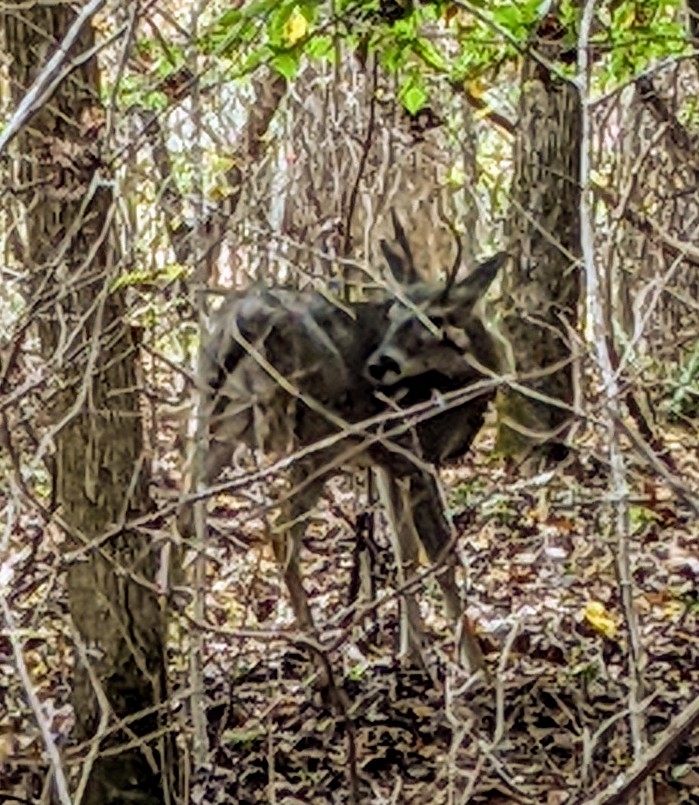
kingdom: Animalia
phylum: Chordata
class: Mammalia
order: Artiodactyla
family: Cervidae
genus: Odocoileus
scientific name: Odocoileus virginianus
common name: White-tailed deer
